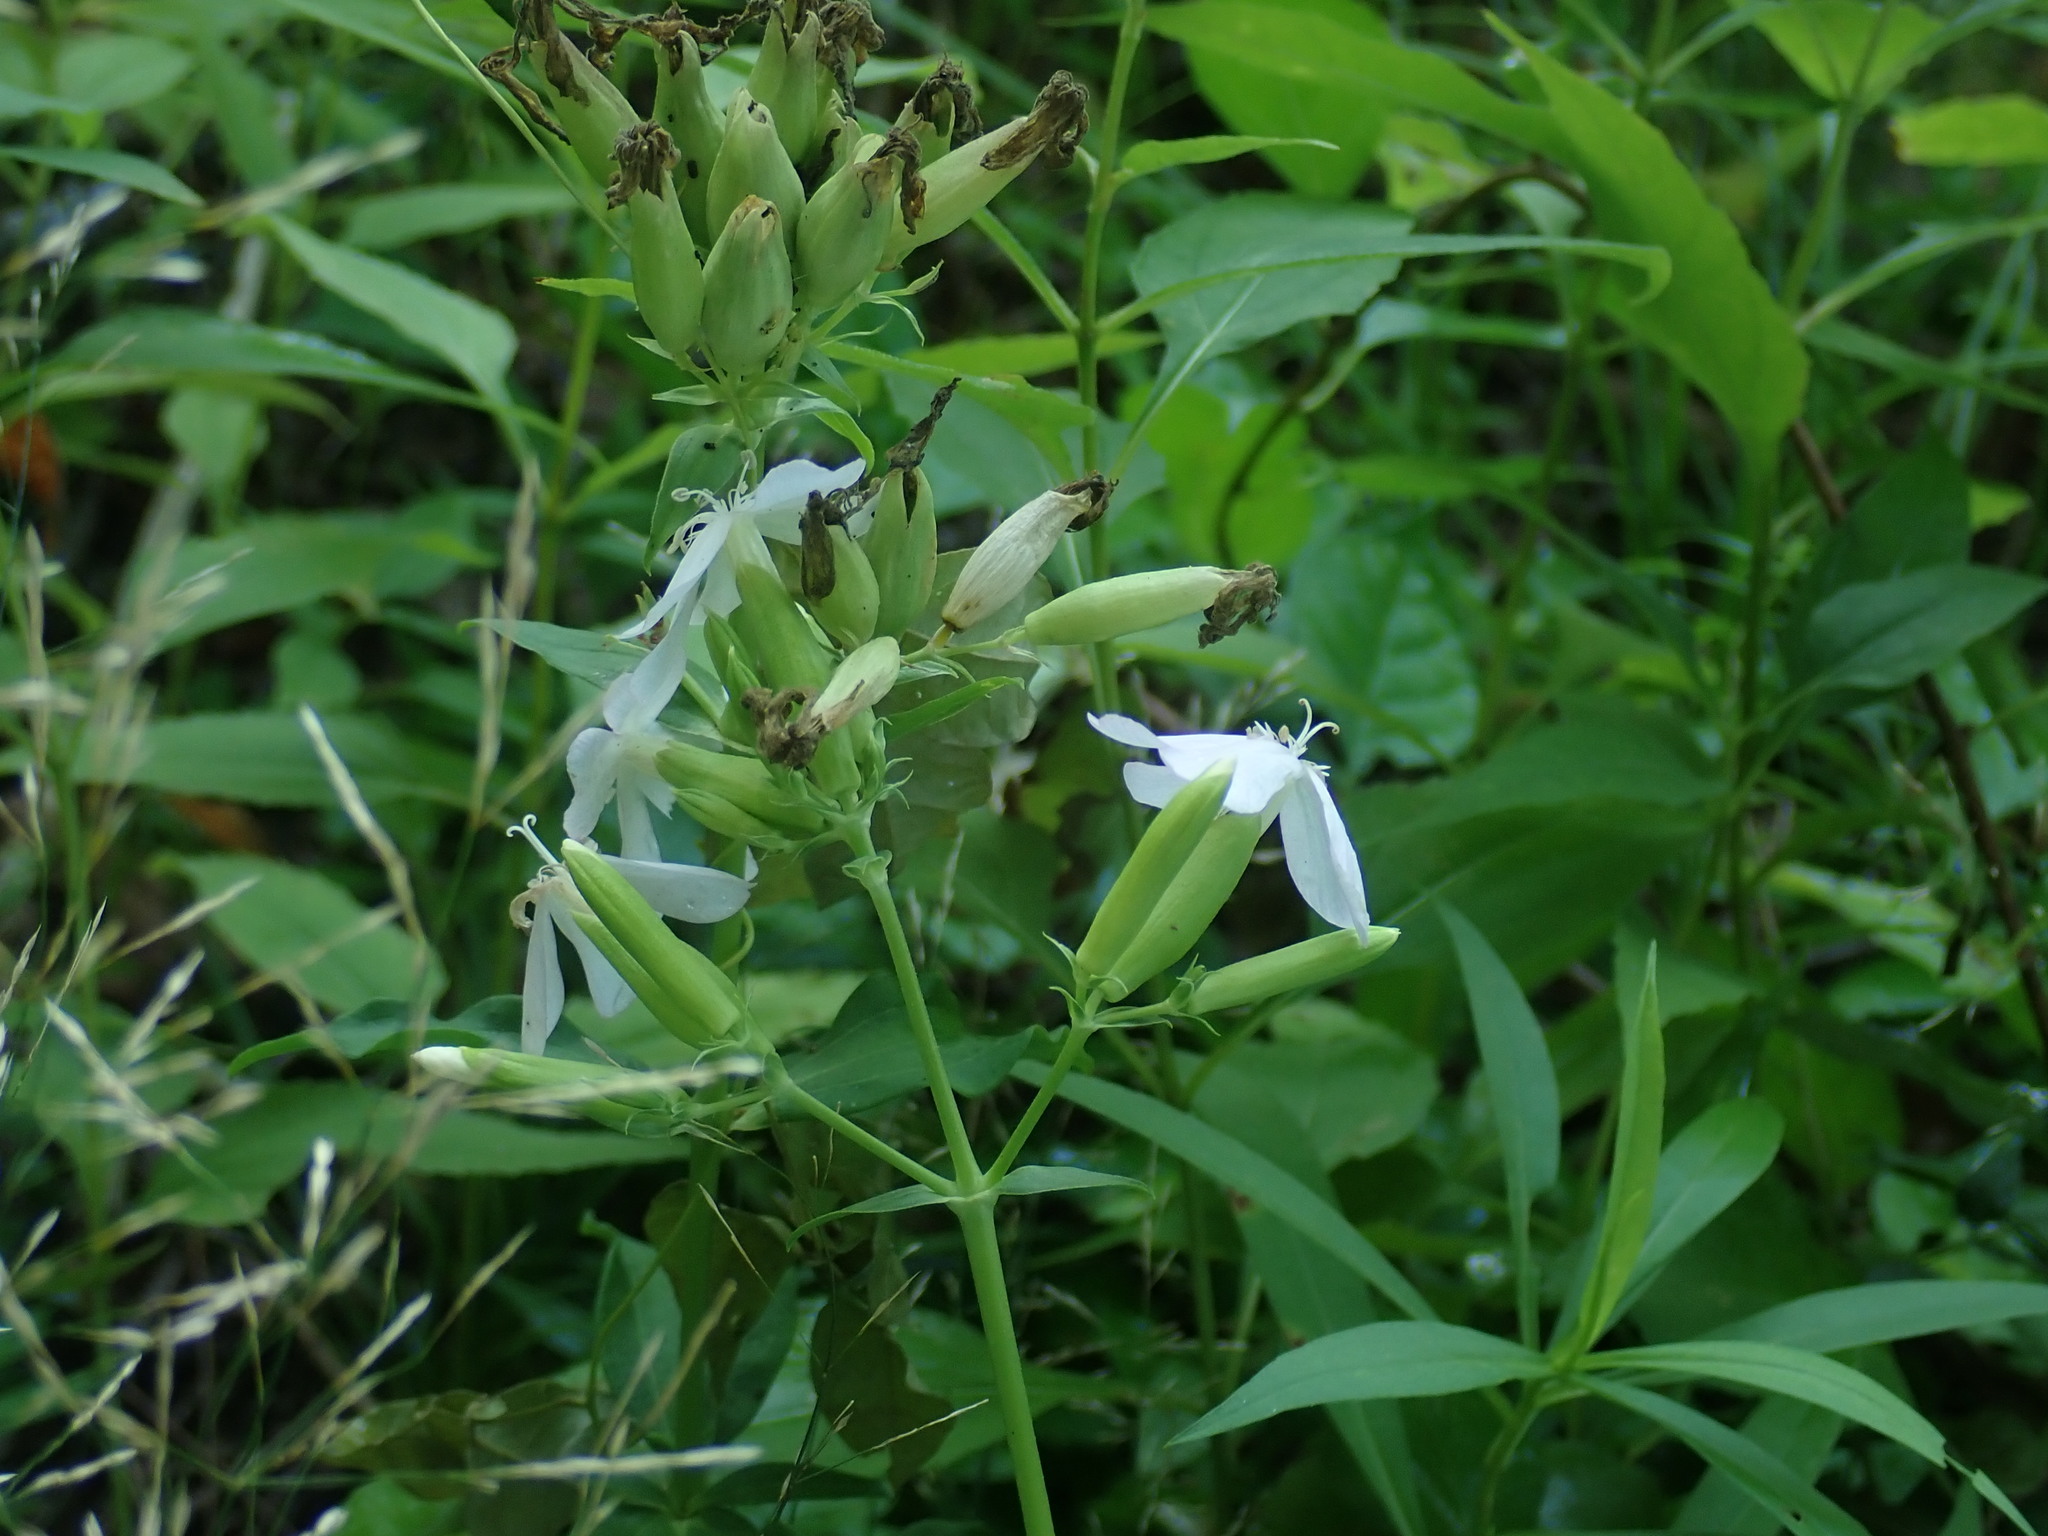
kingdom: Plantae
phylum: Tracheophyta
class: Magnoliopsida
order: Caryophyllales
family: Caryophyllaceae
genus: Saponaria
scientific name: Saponaria officinalis
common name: Soapwort
